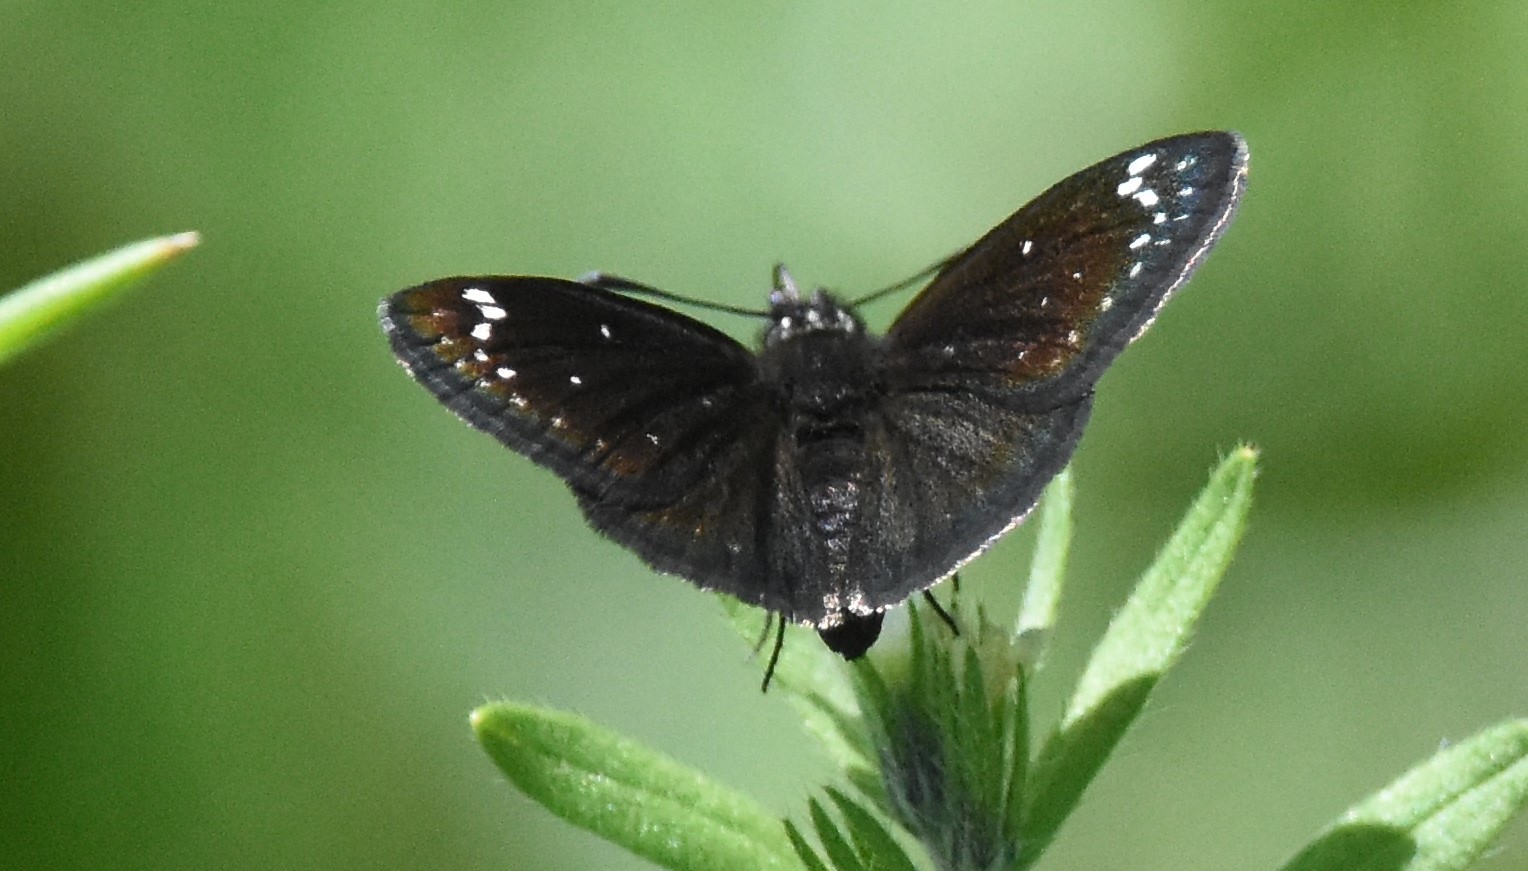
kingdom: Animalia
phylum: Arthropoda
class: Insecta
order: Lepidoptera
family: Hesperiidae
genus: Pholisora
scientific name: Pholisora catullus
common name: Common sootywing
